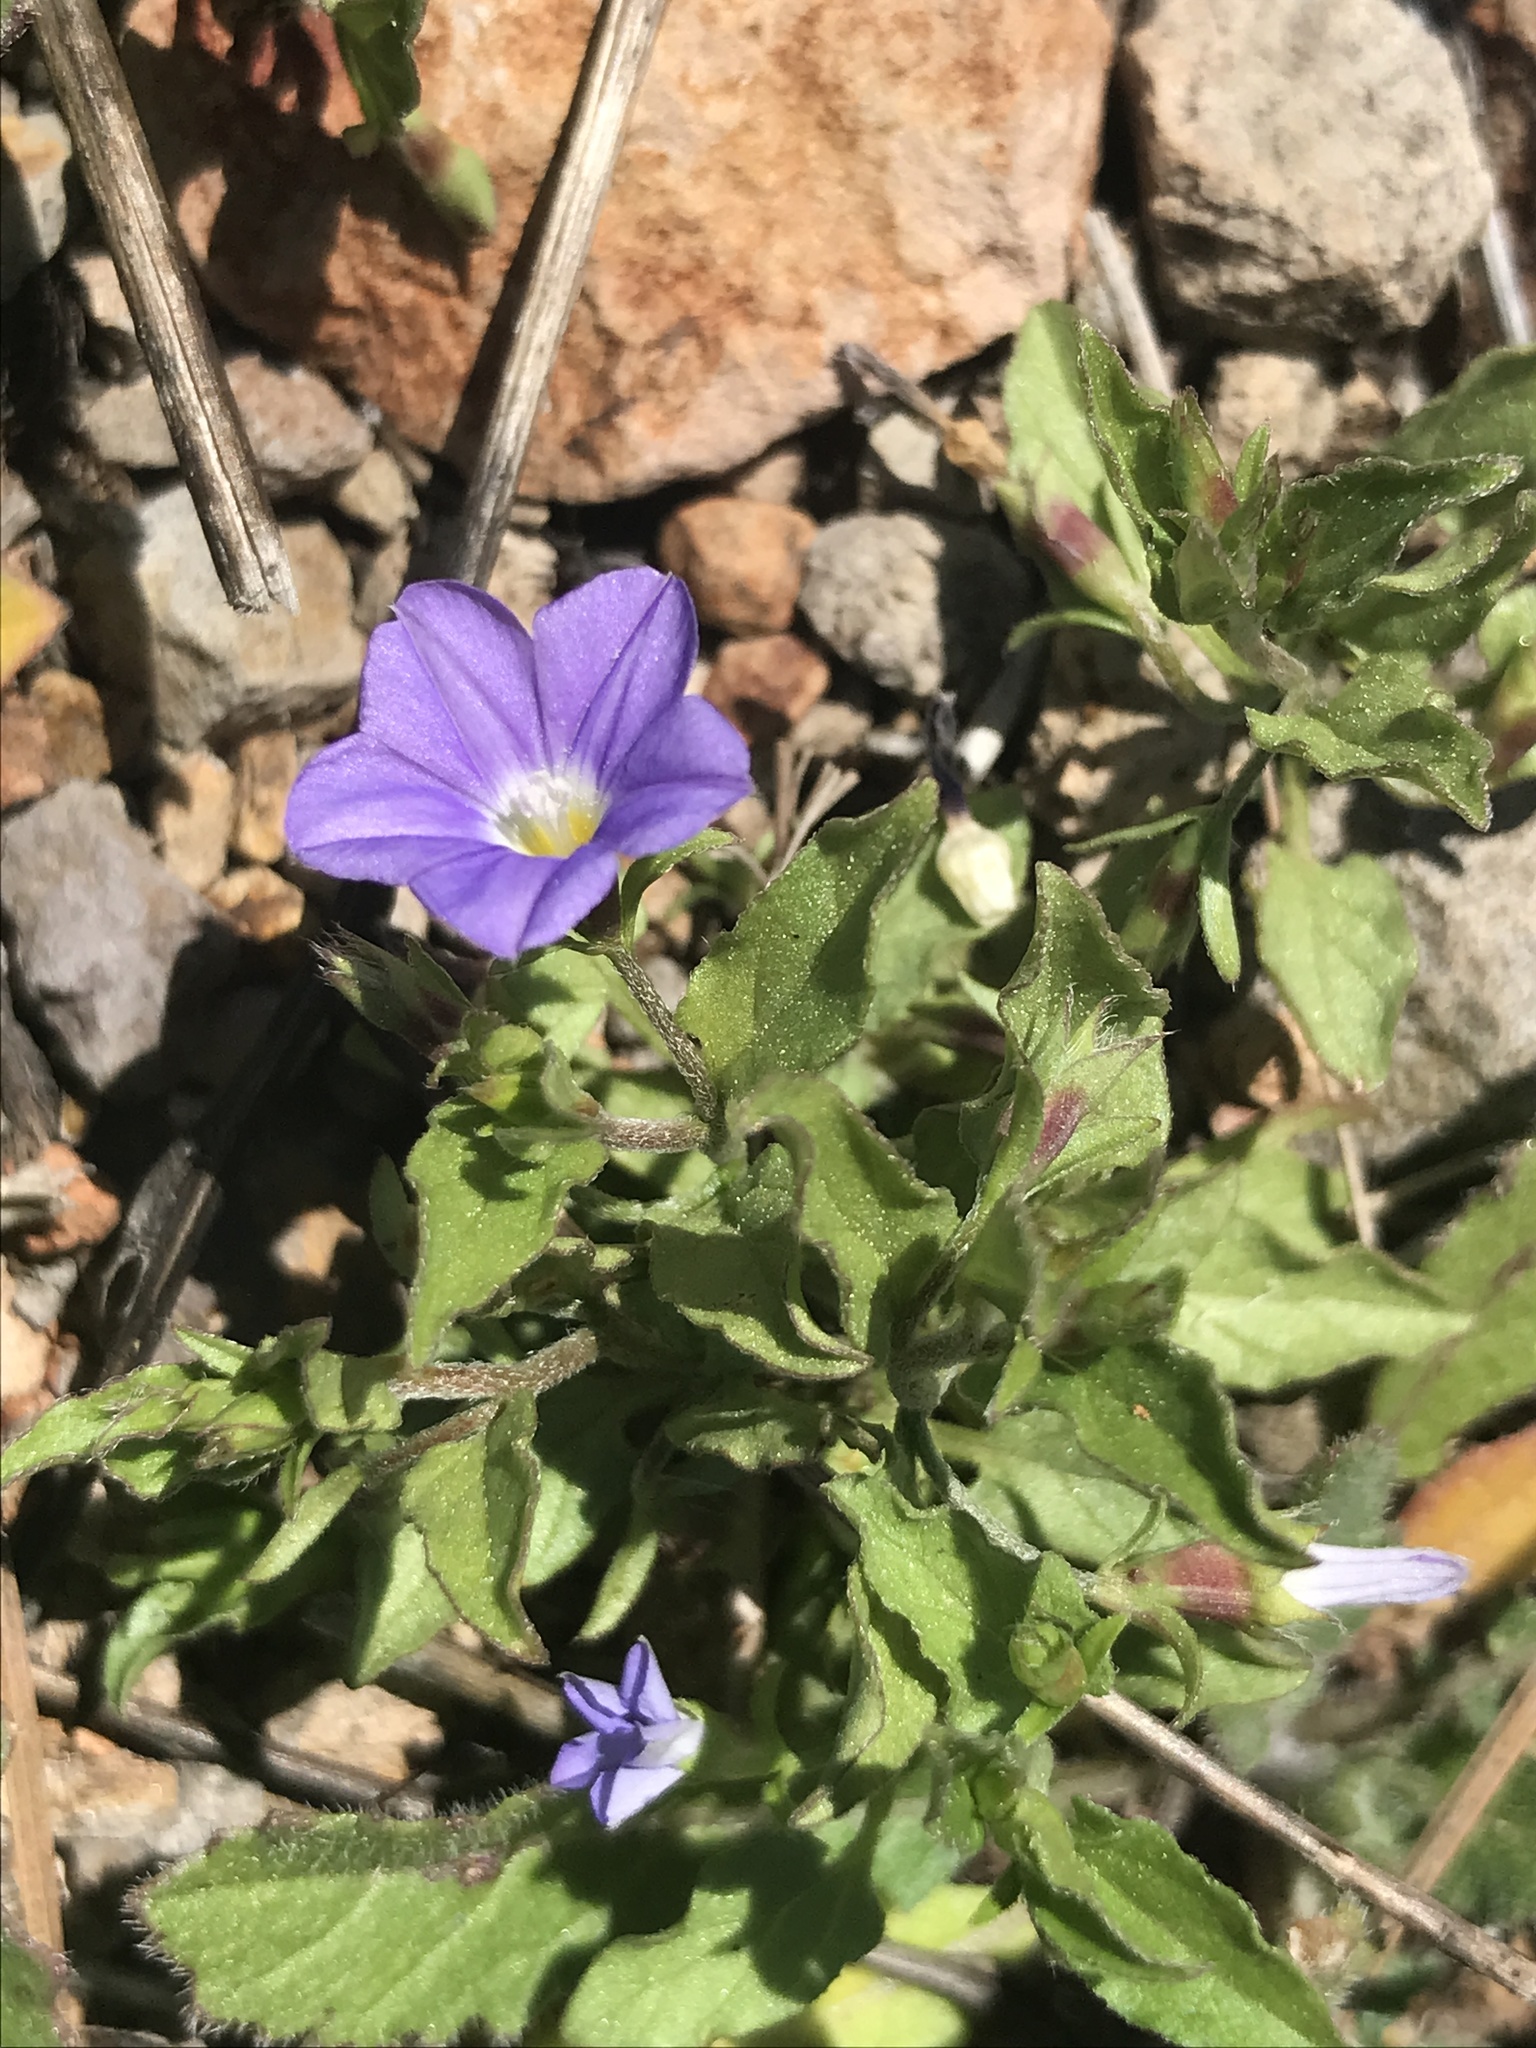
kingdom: Plantae
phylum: Tracheophyta
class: Magnoliopsida
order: Solanales
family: Convolvulaceae
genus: Convolvulus
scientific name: Convolvulus siculus
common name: Small blue-convolvulus
